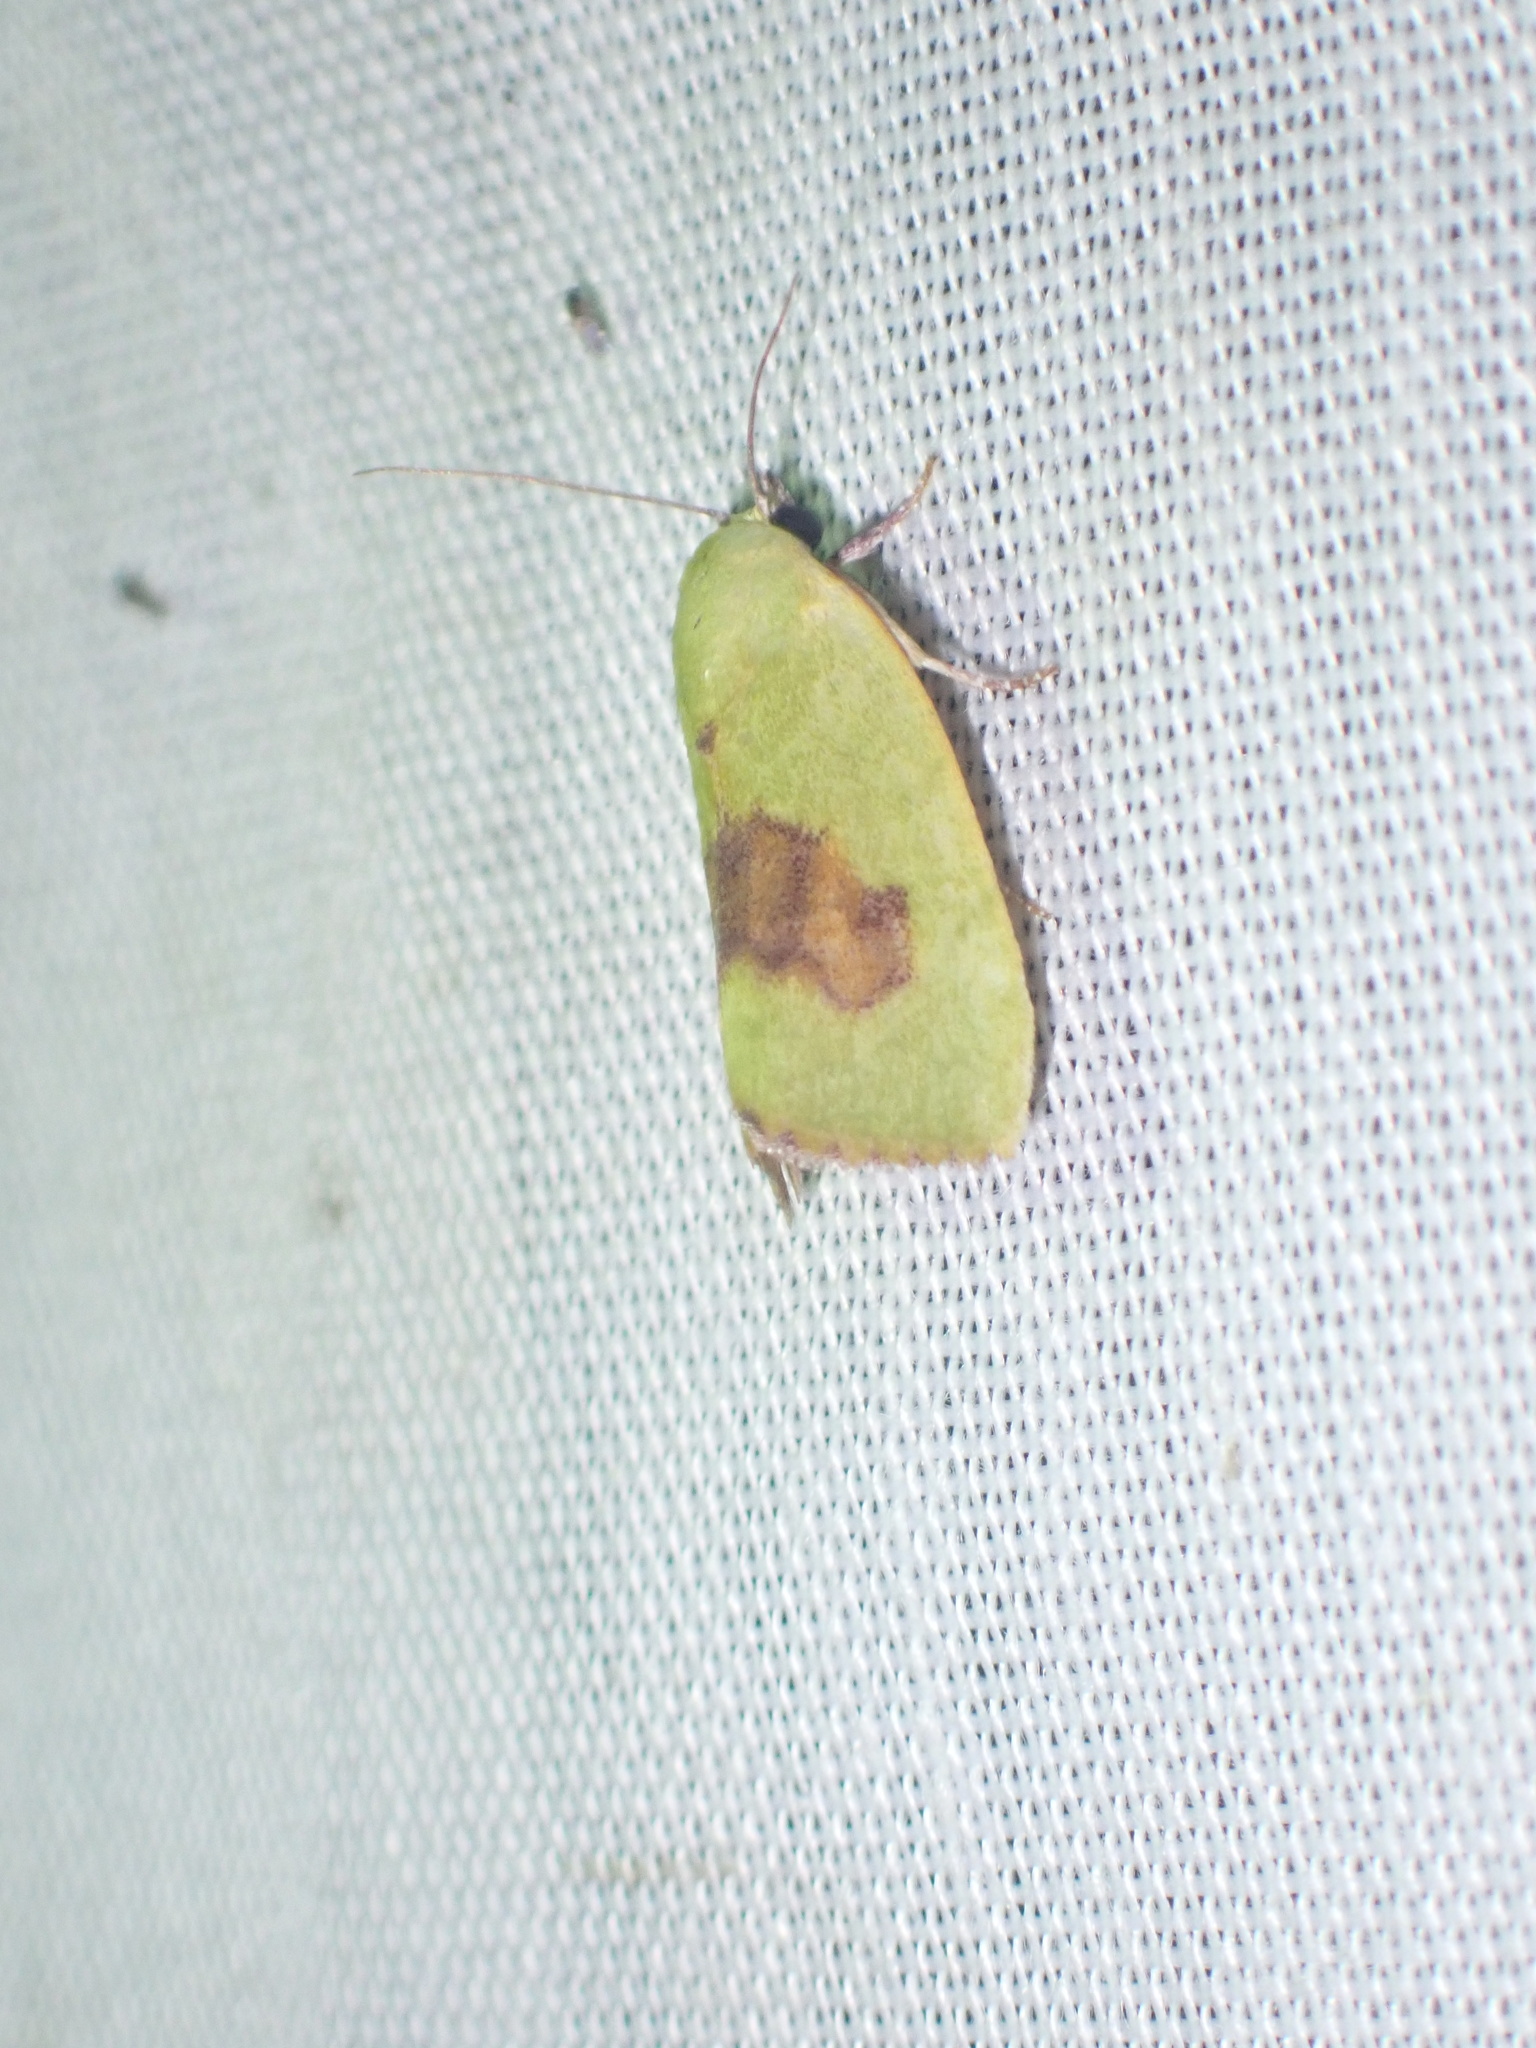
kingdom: Animalia
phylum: Arthropoda
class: Insecta
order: Lepidoptera
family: Nolidae
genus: Earias
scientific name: Earias biplaga
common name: Spiny bollworm
